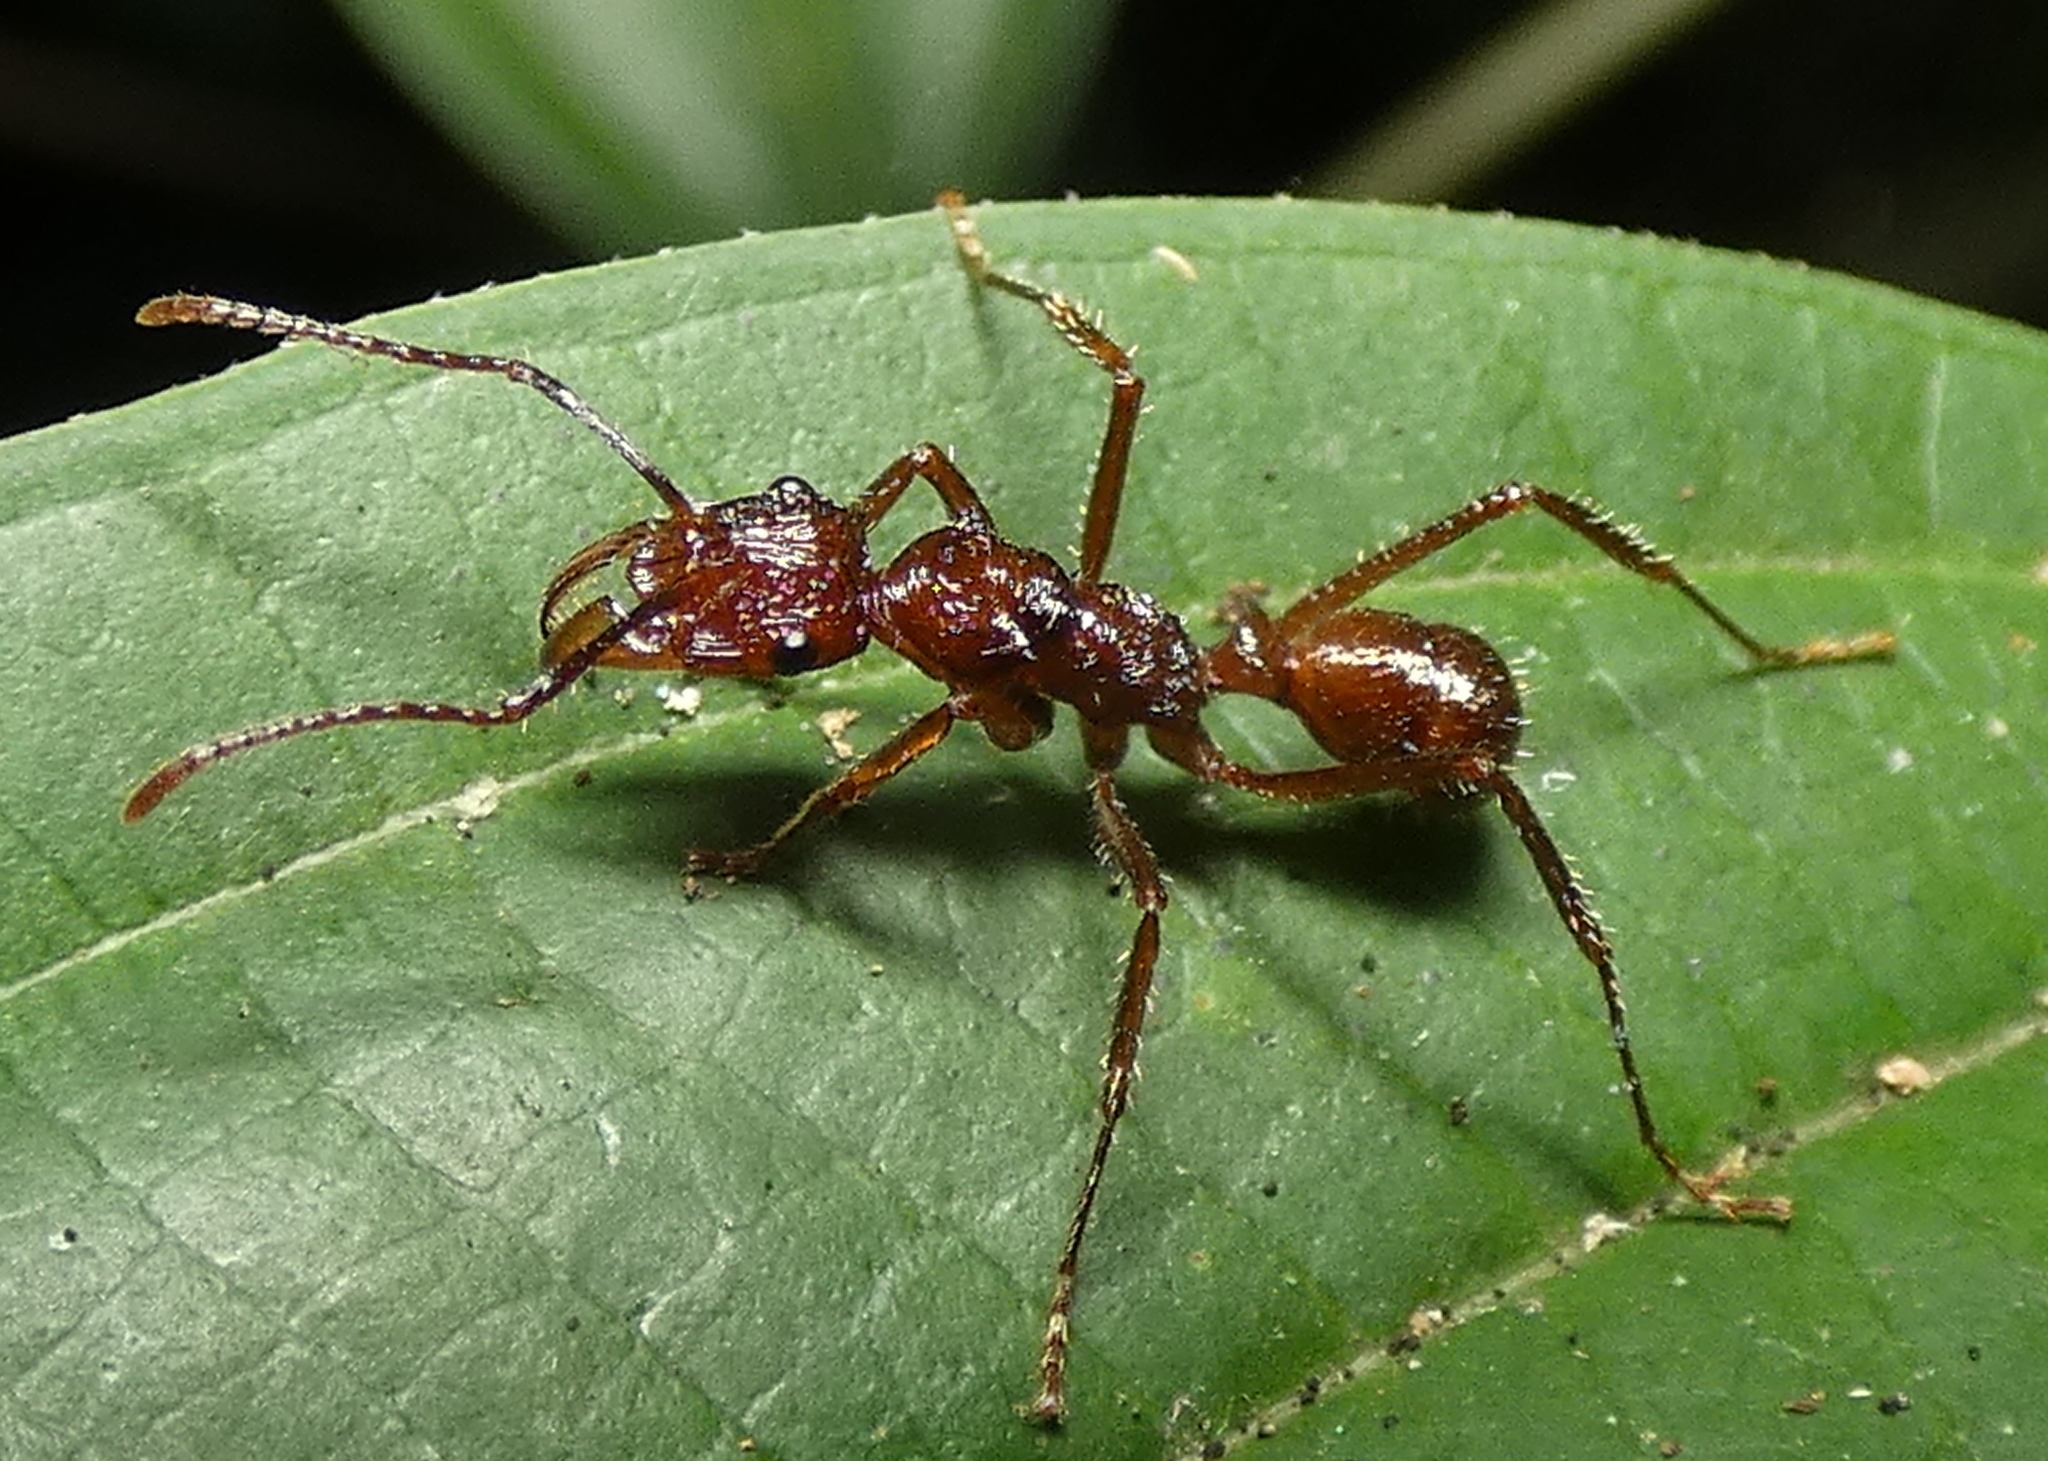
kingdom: Animalia
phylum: Arthropoda
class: Insecta
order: Hymenoptera
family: Formicidae
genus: Ectatomma
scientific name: Ectatomma tuberculatum
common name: Ant
